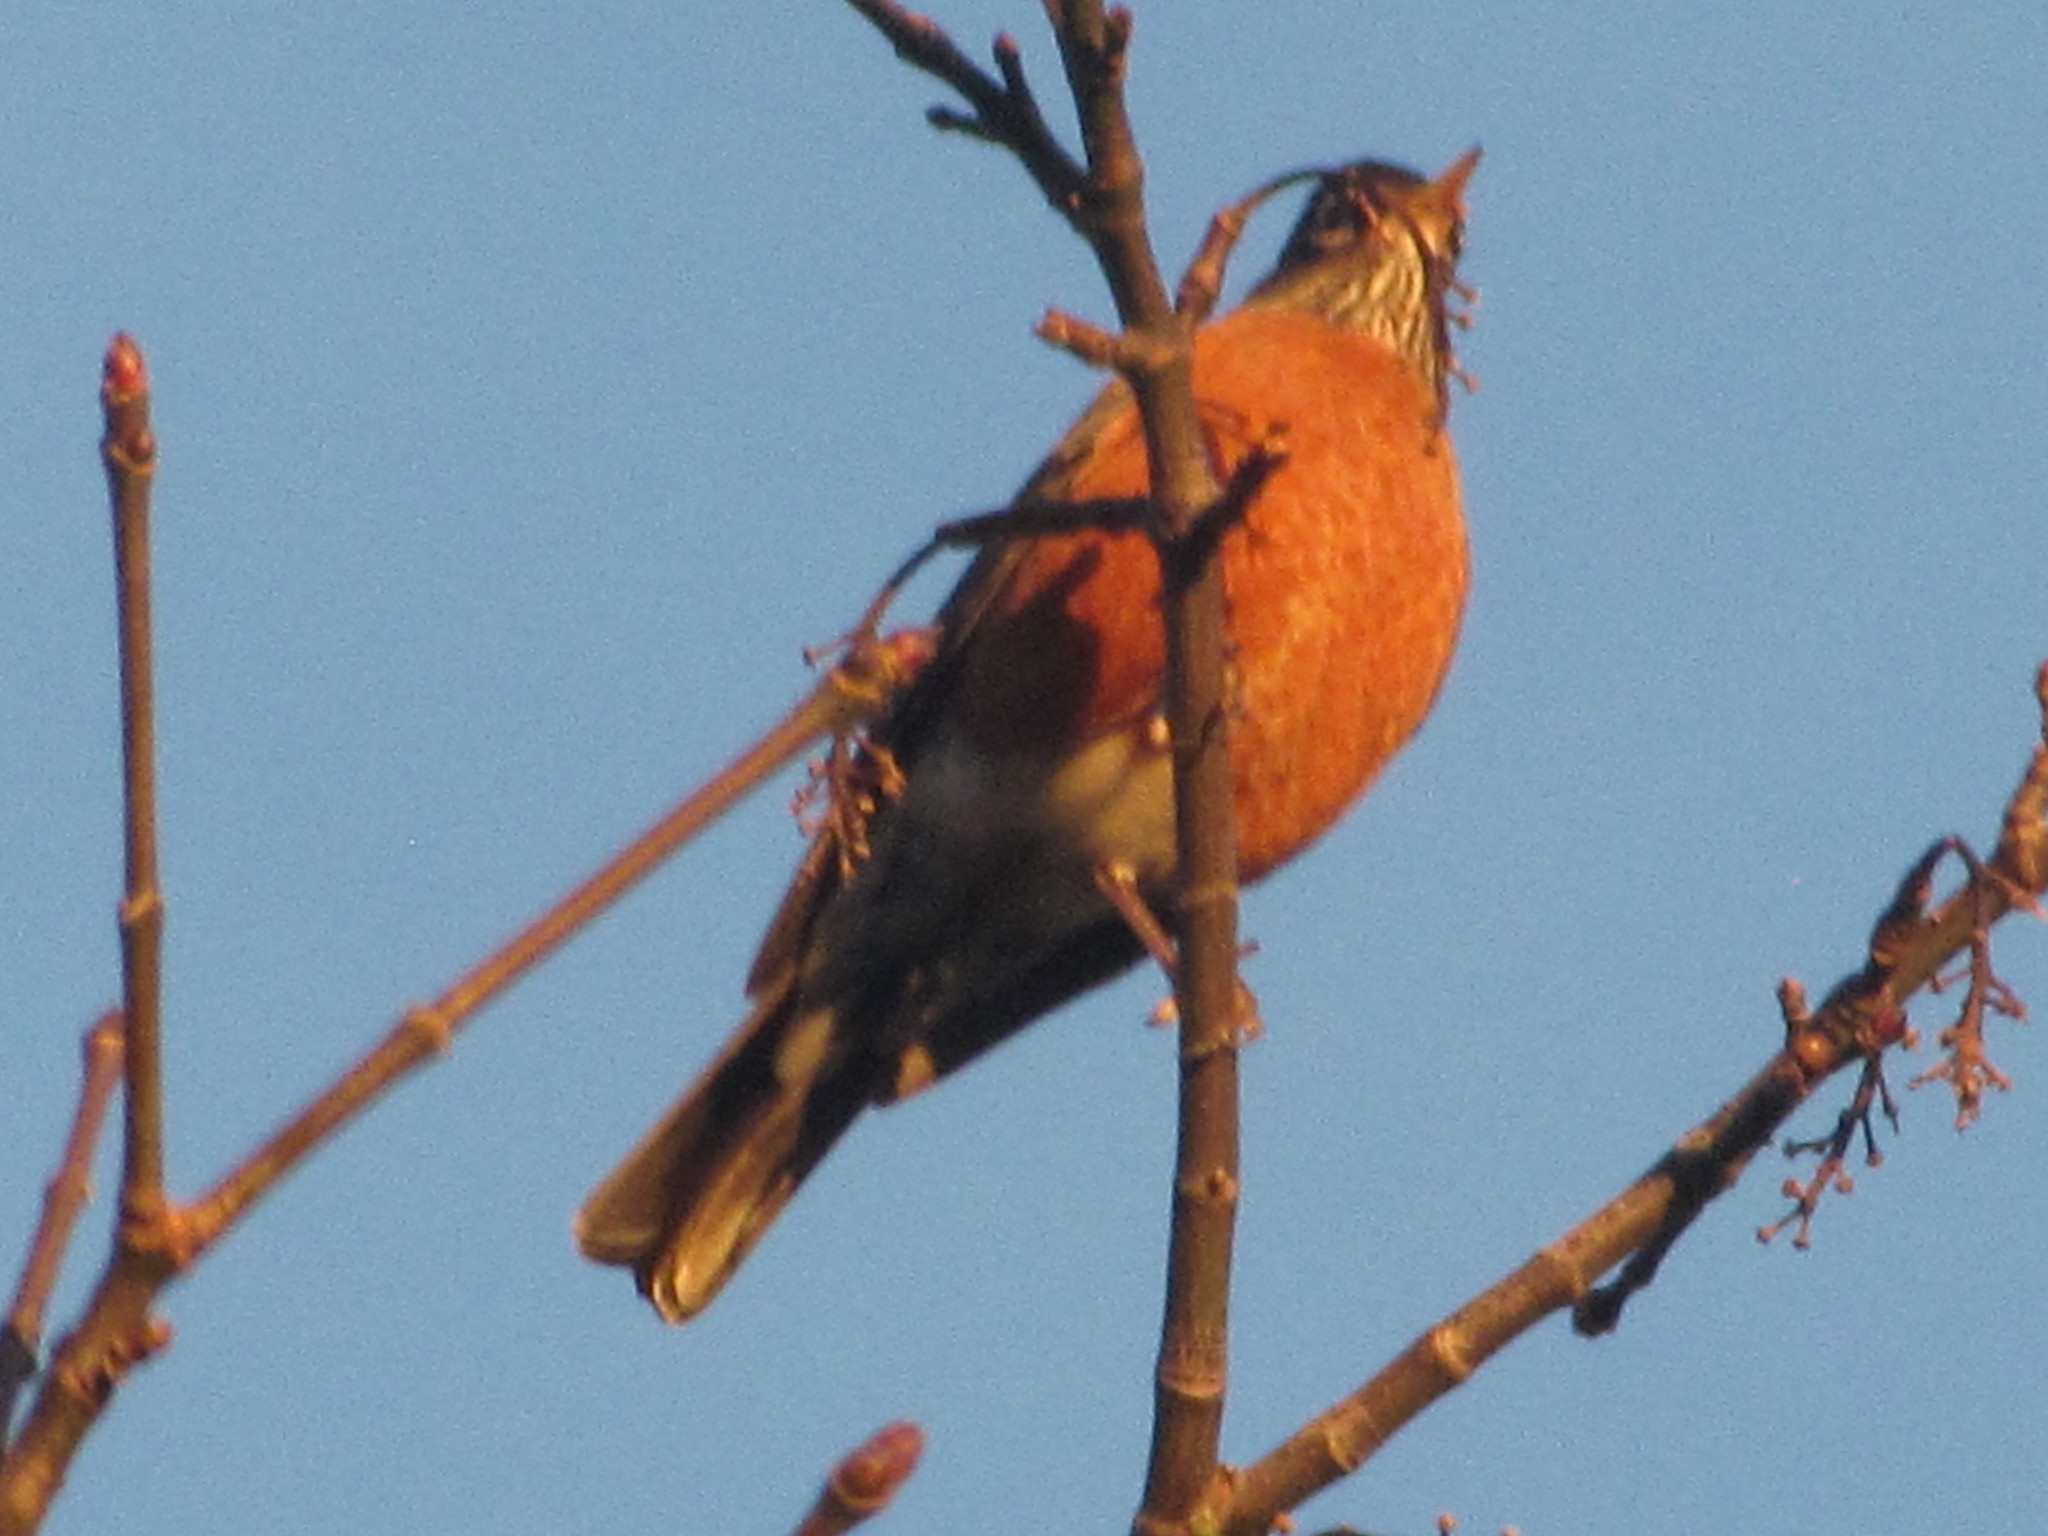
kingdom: Animalia
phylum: Chordata
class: Aves
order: Passeriformes
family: Turdidae
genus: Turdus
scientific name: Turdus migratorius
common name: American robin
